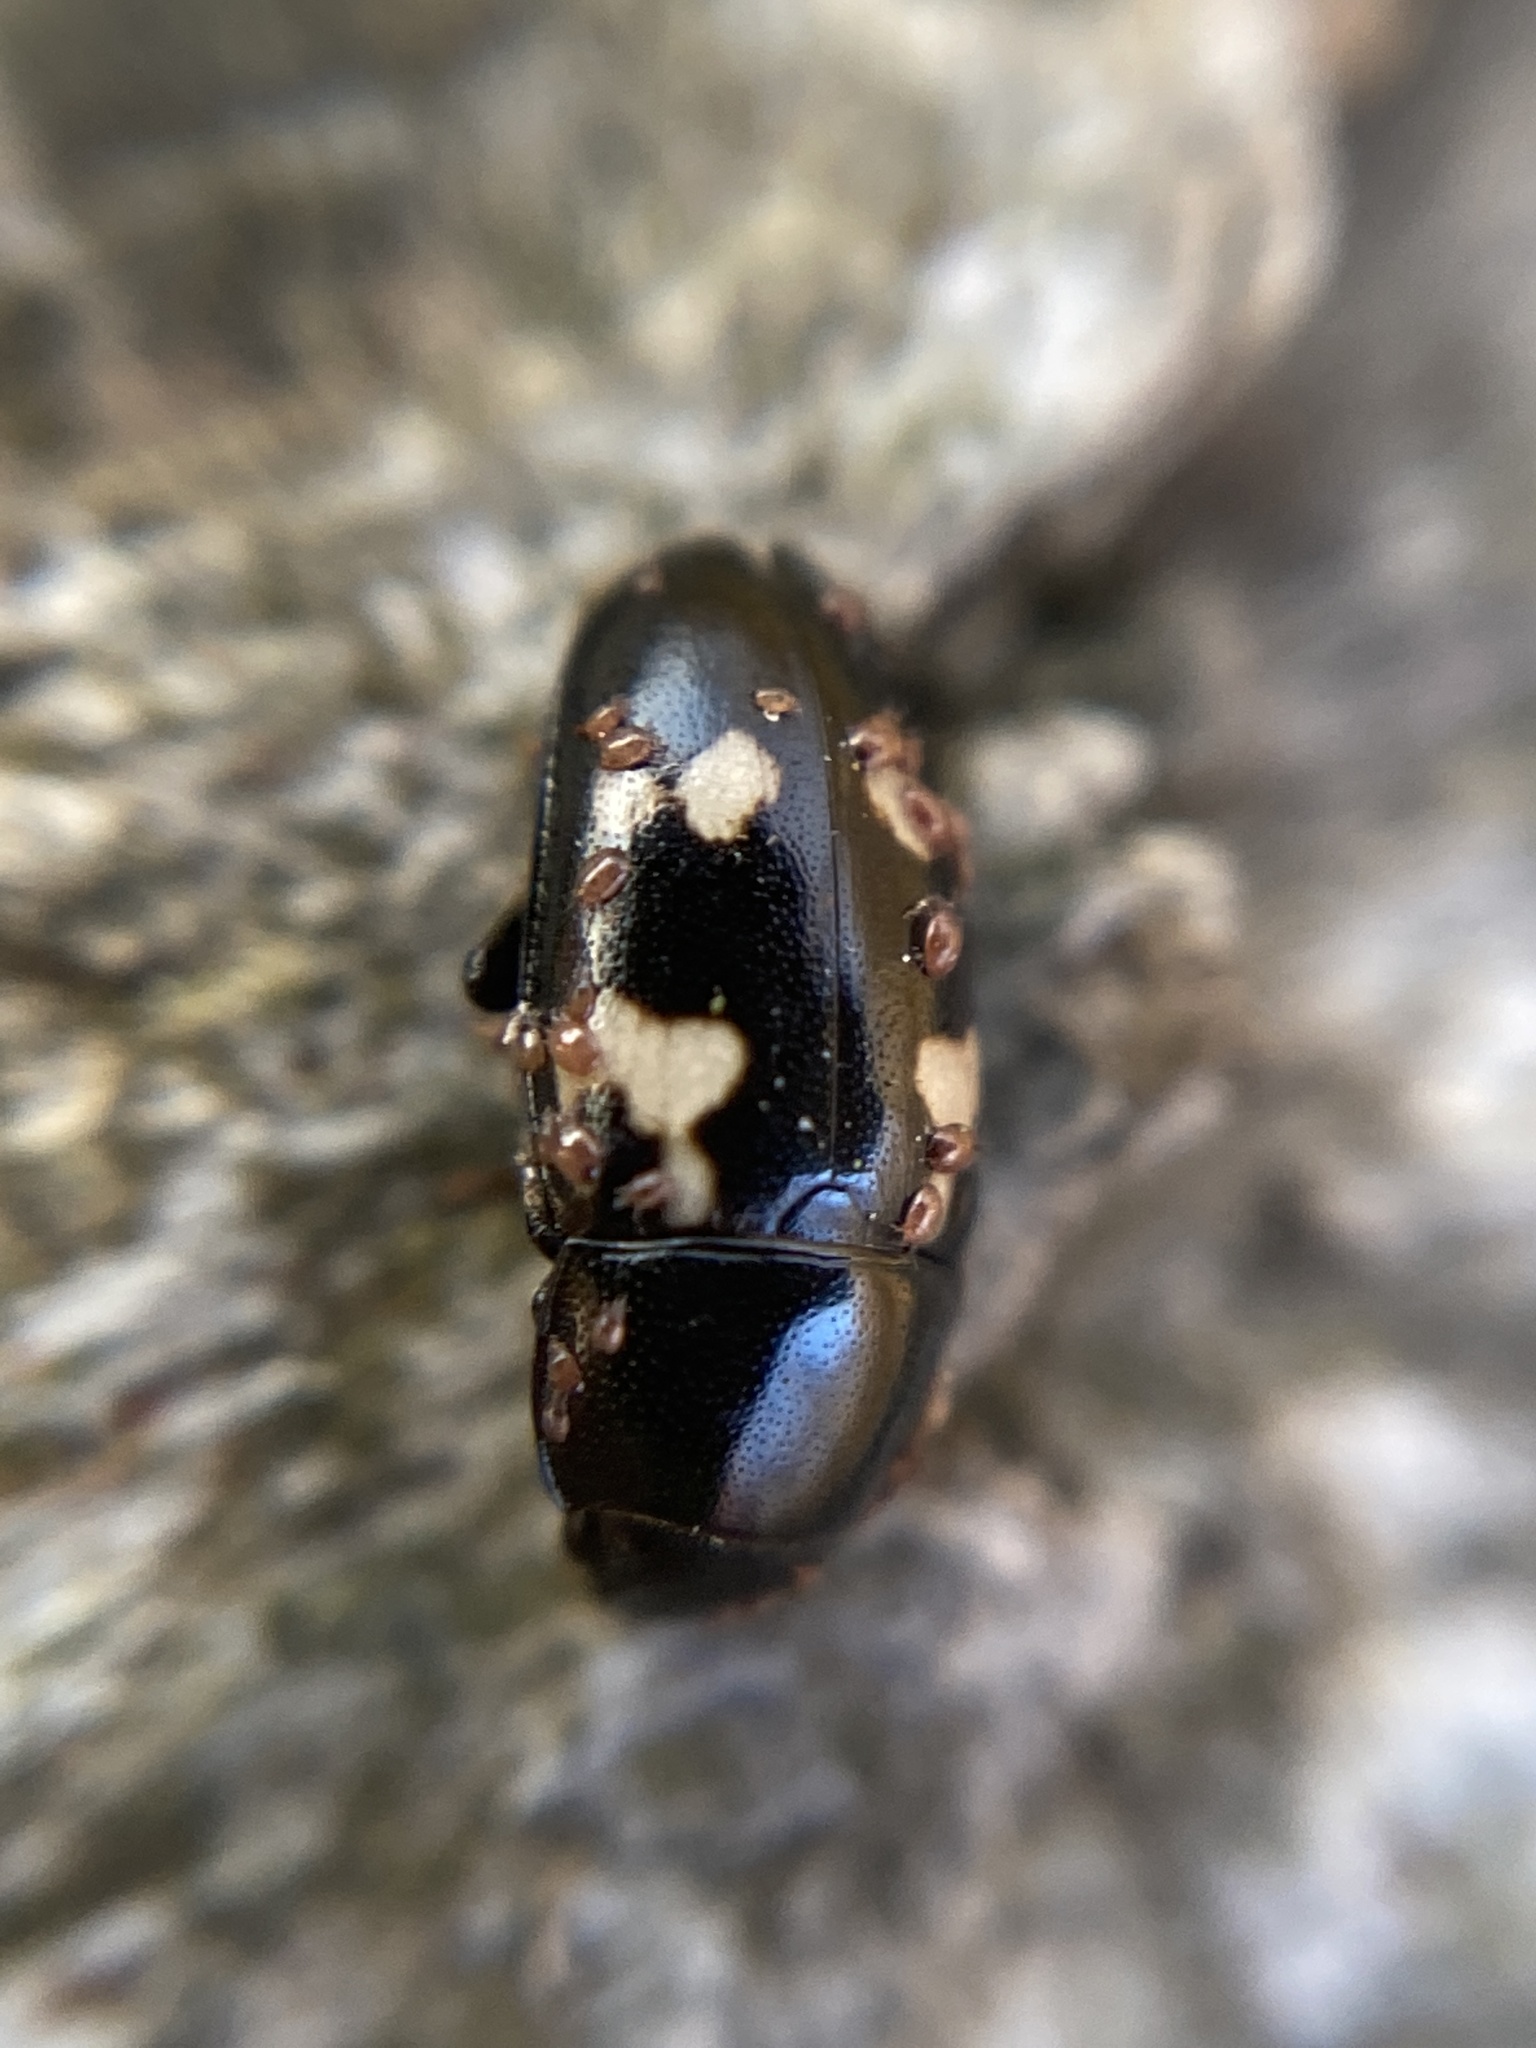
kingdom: Animalia
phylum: Arthropoda
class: Insecta
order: Coleoptera
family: Nitidulidae
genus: Glischrochilus
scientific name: Glischrochilus quadriguttatus
